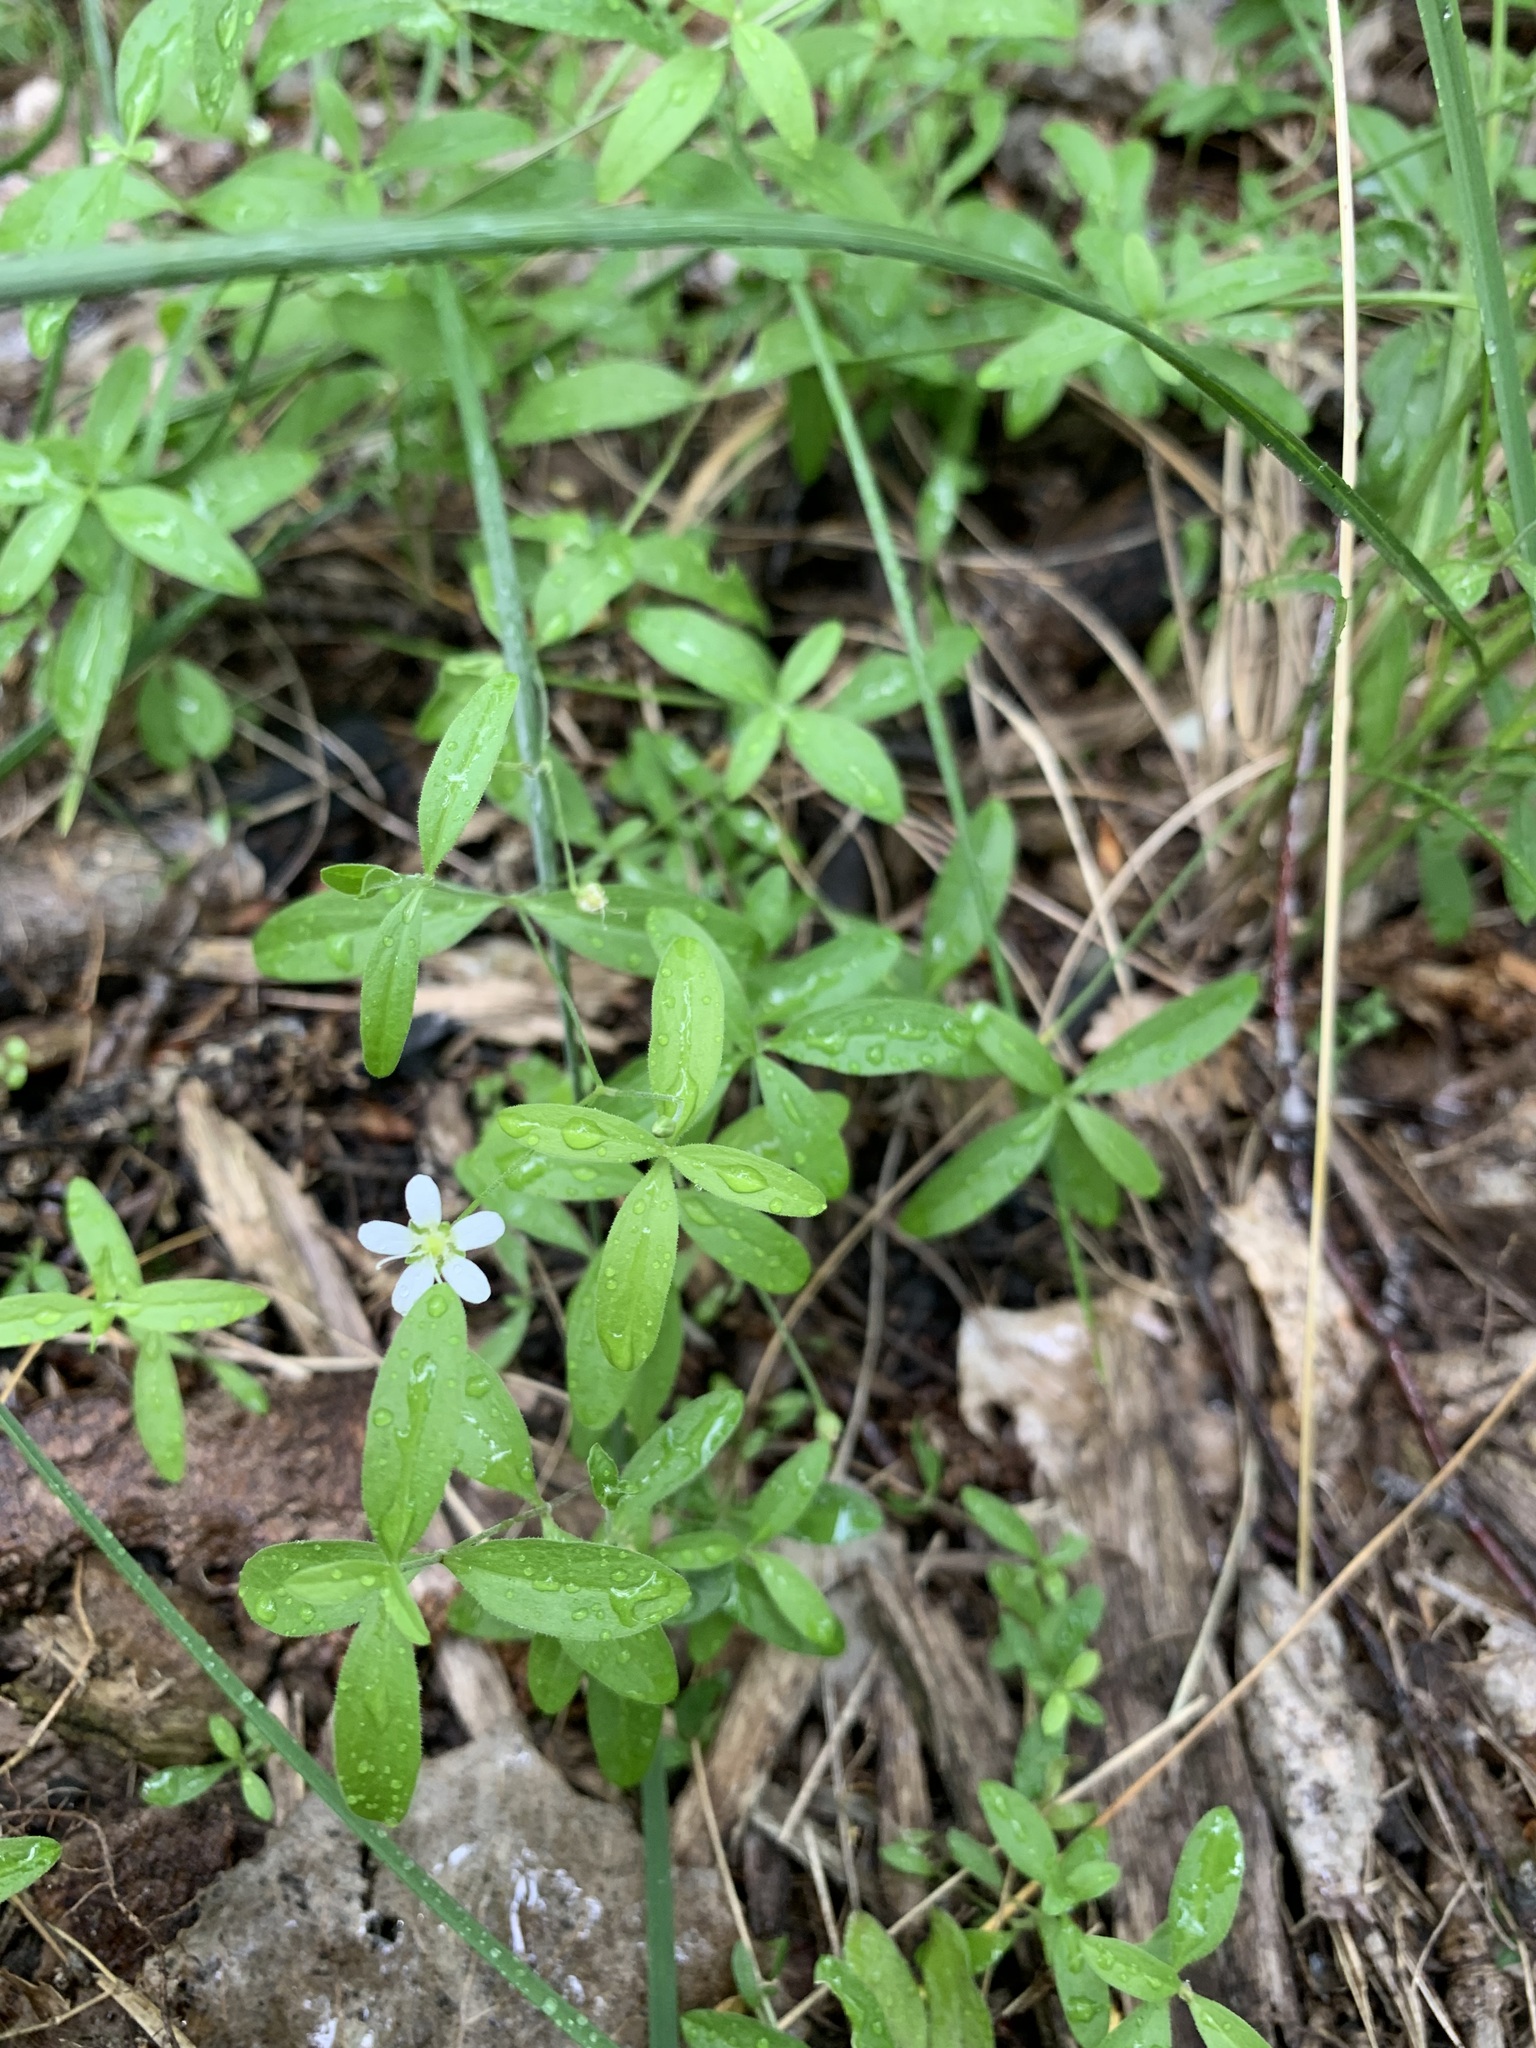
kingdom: Plantae
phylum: Tracheophyta
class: Magnoliopsida
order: Caryophyllales
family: Caryophyllaceae
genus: Moehringia
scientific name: Moehringia lateriflora
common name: Blunt-leaved sandwort
